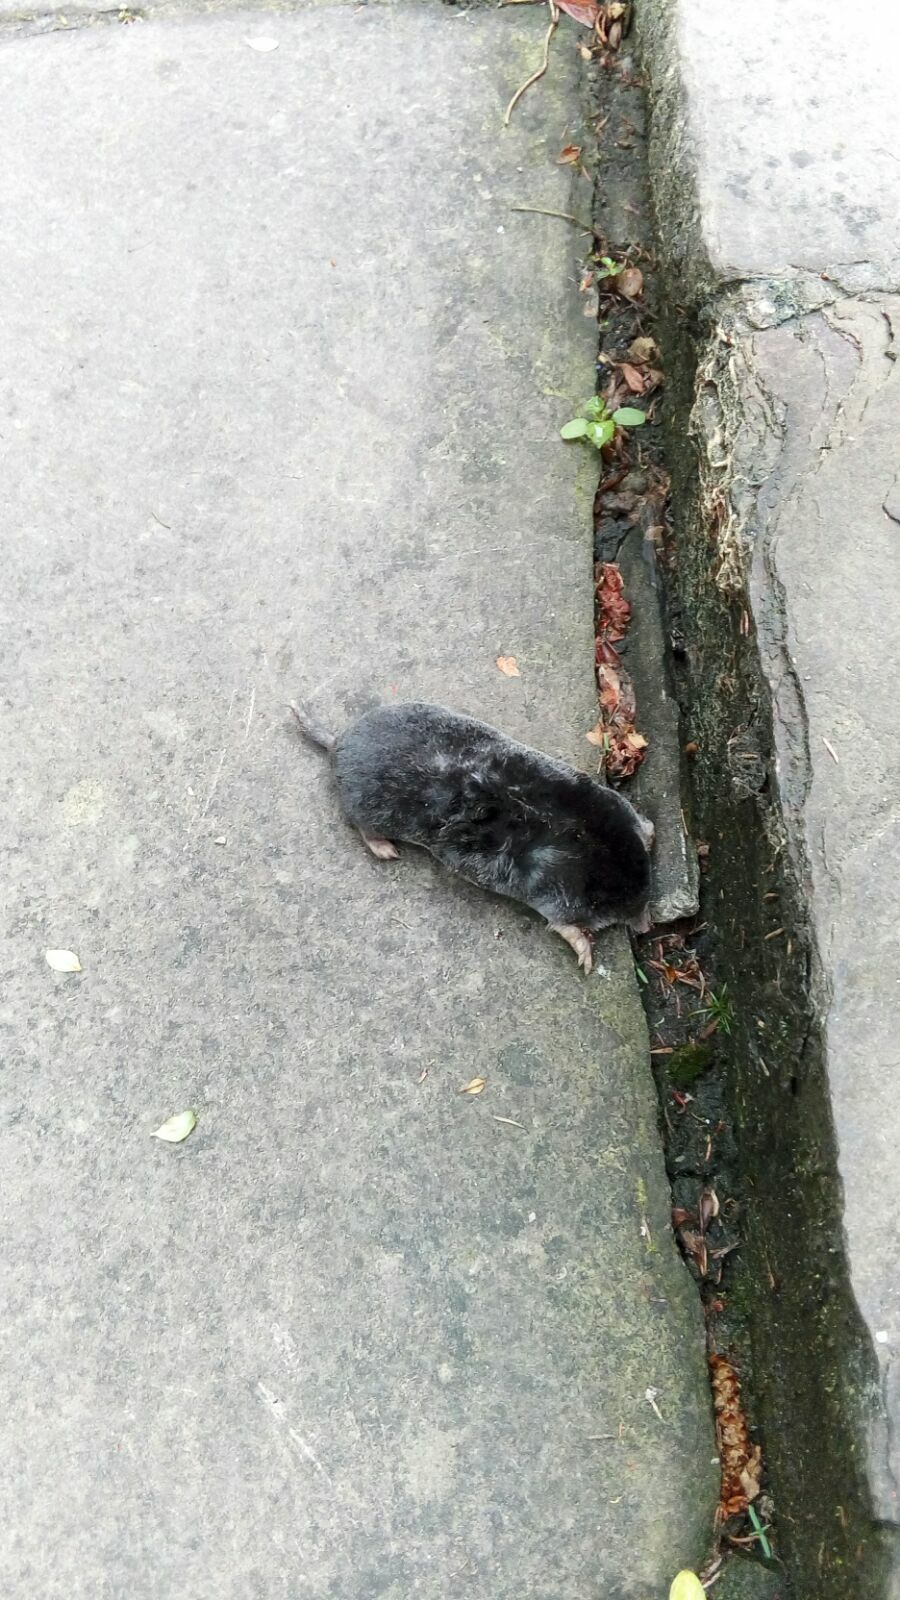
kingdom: Animalia
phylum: Chordata
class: Mammalia
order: Soricomorpha
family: Talpidae
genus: Talpa
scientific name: Talpa europaea
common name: European mole
